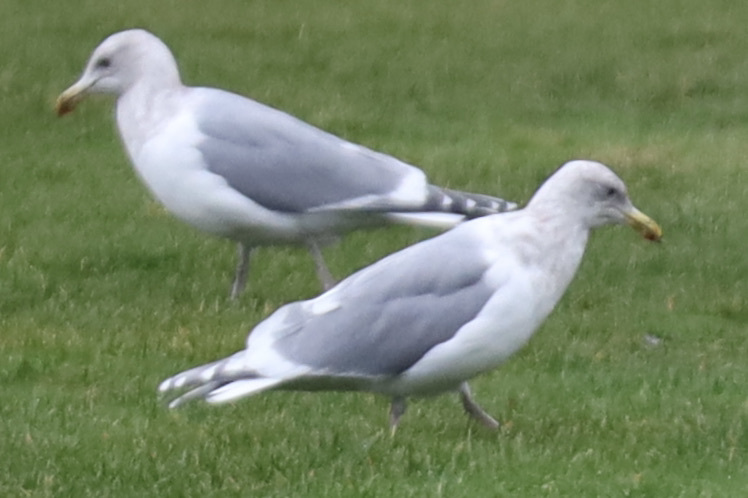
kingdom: Animalia
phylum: Chordata
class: Aves
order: Charadriiformes
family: Laridae
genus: Larus
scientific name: Larus
